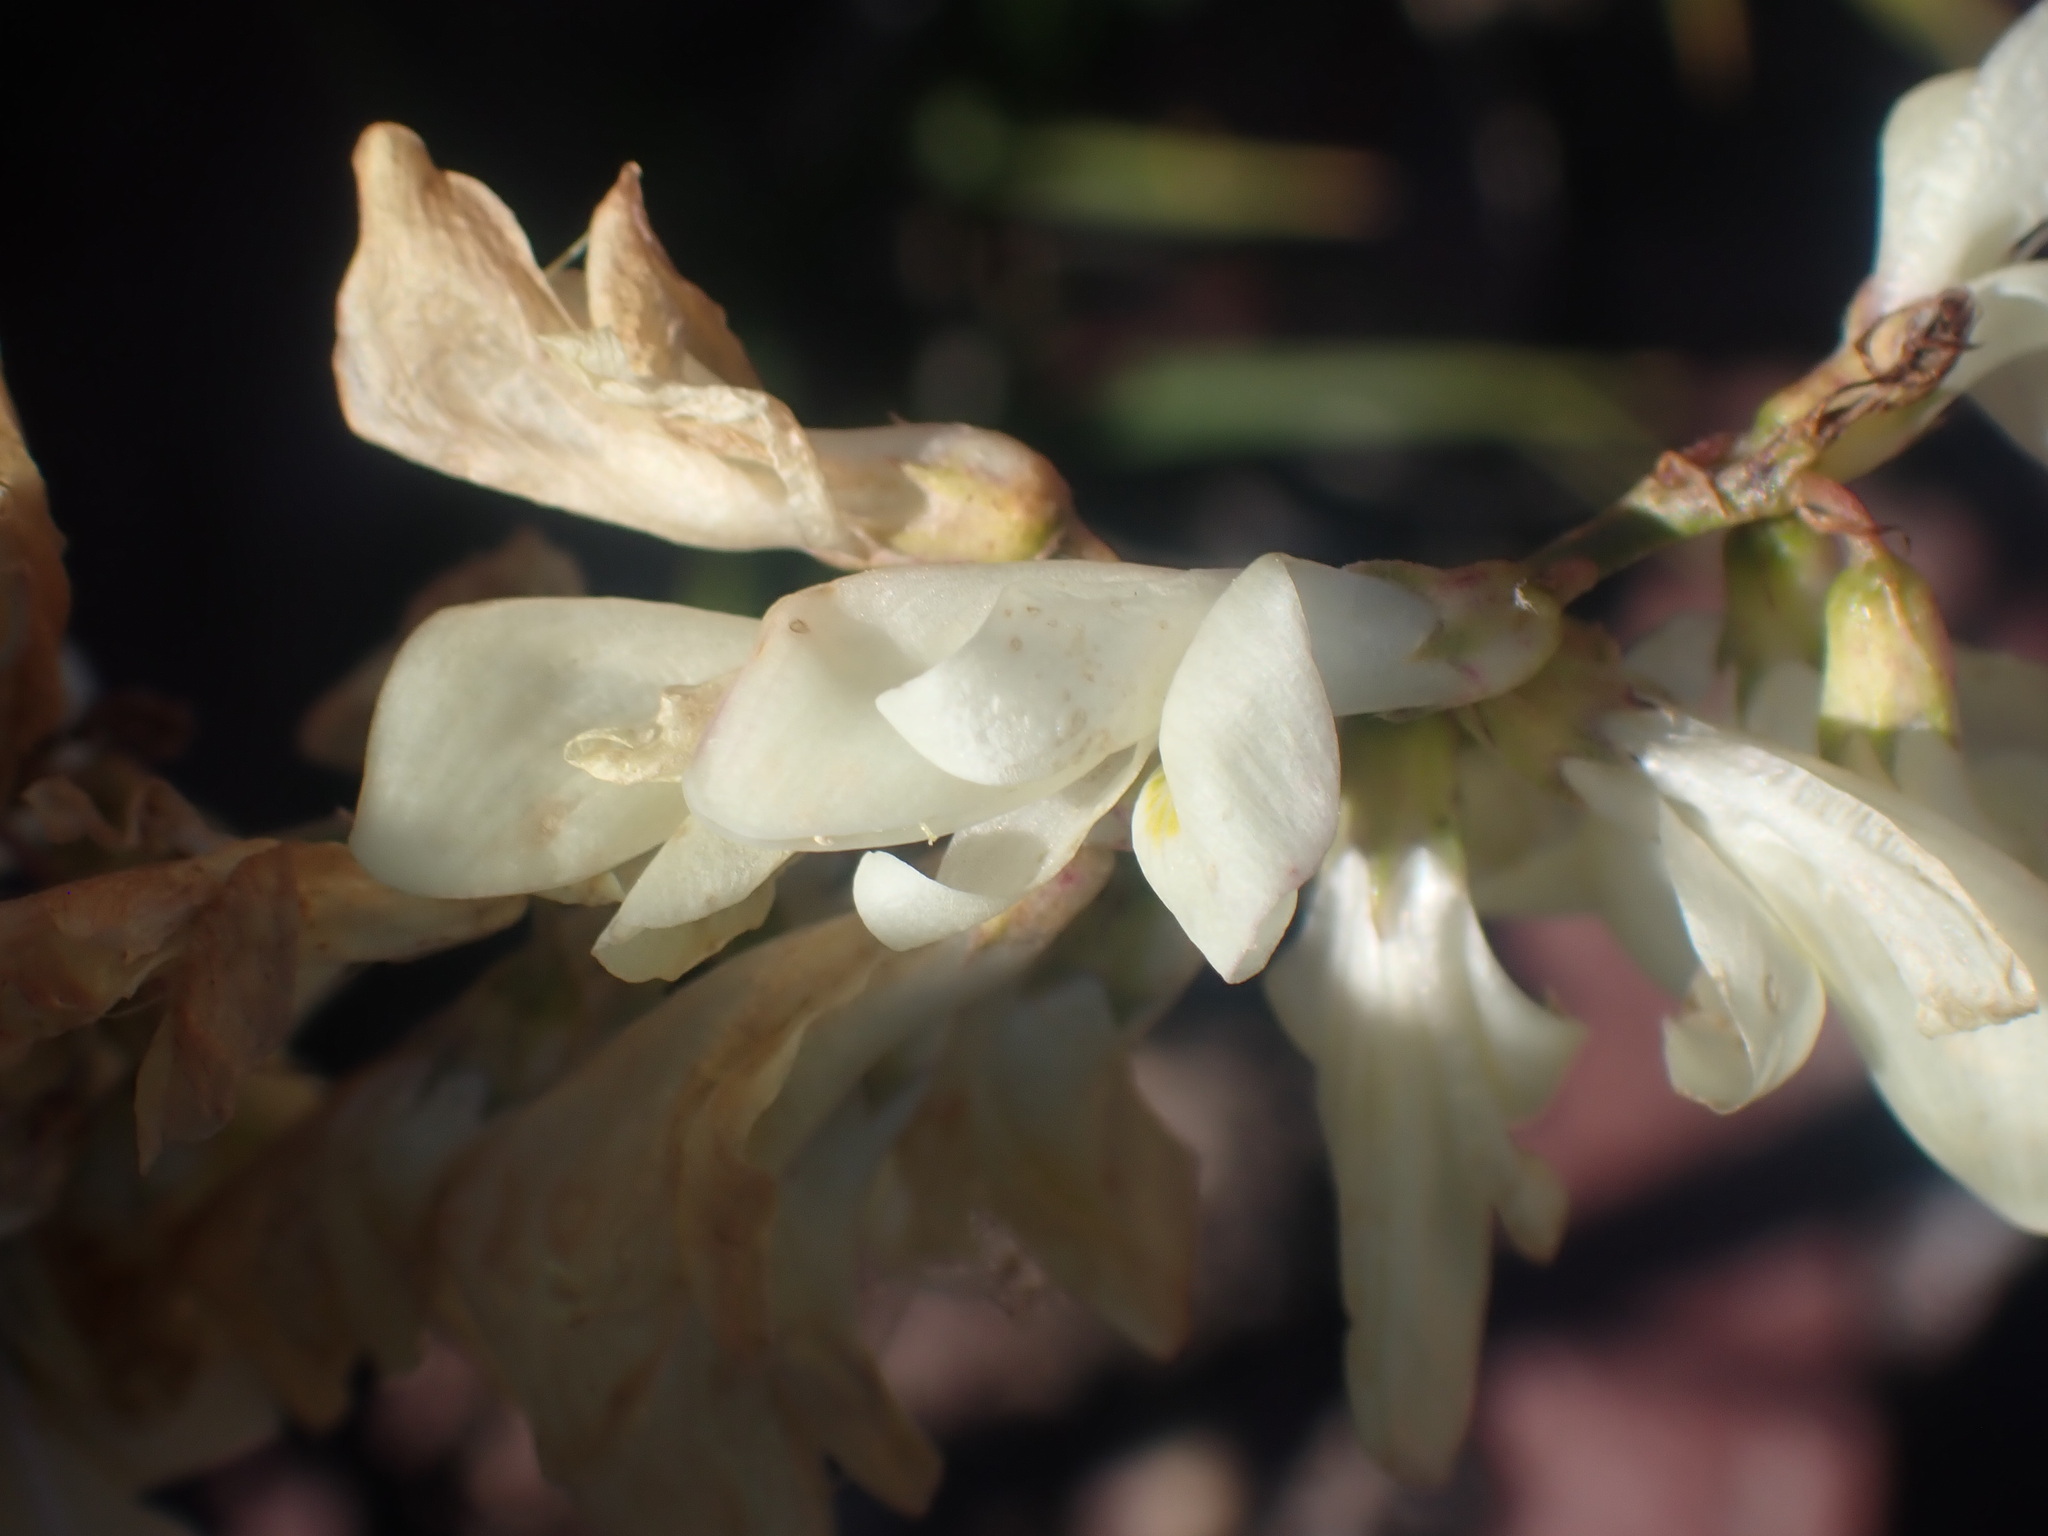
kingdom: Plantae
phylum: Tracheophyta
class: Magnoliopsida
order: Fabales
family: Fabaceae
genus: Hedysarum
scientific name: Hedysarum sulphurescens
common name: Sulphur hedysarum
